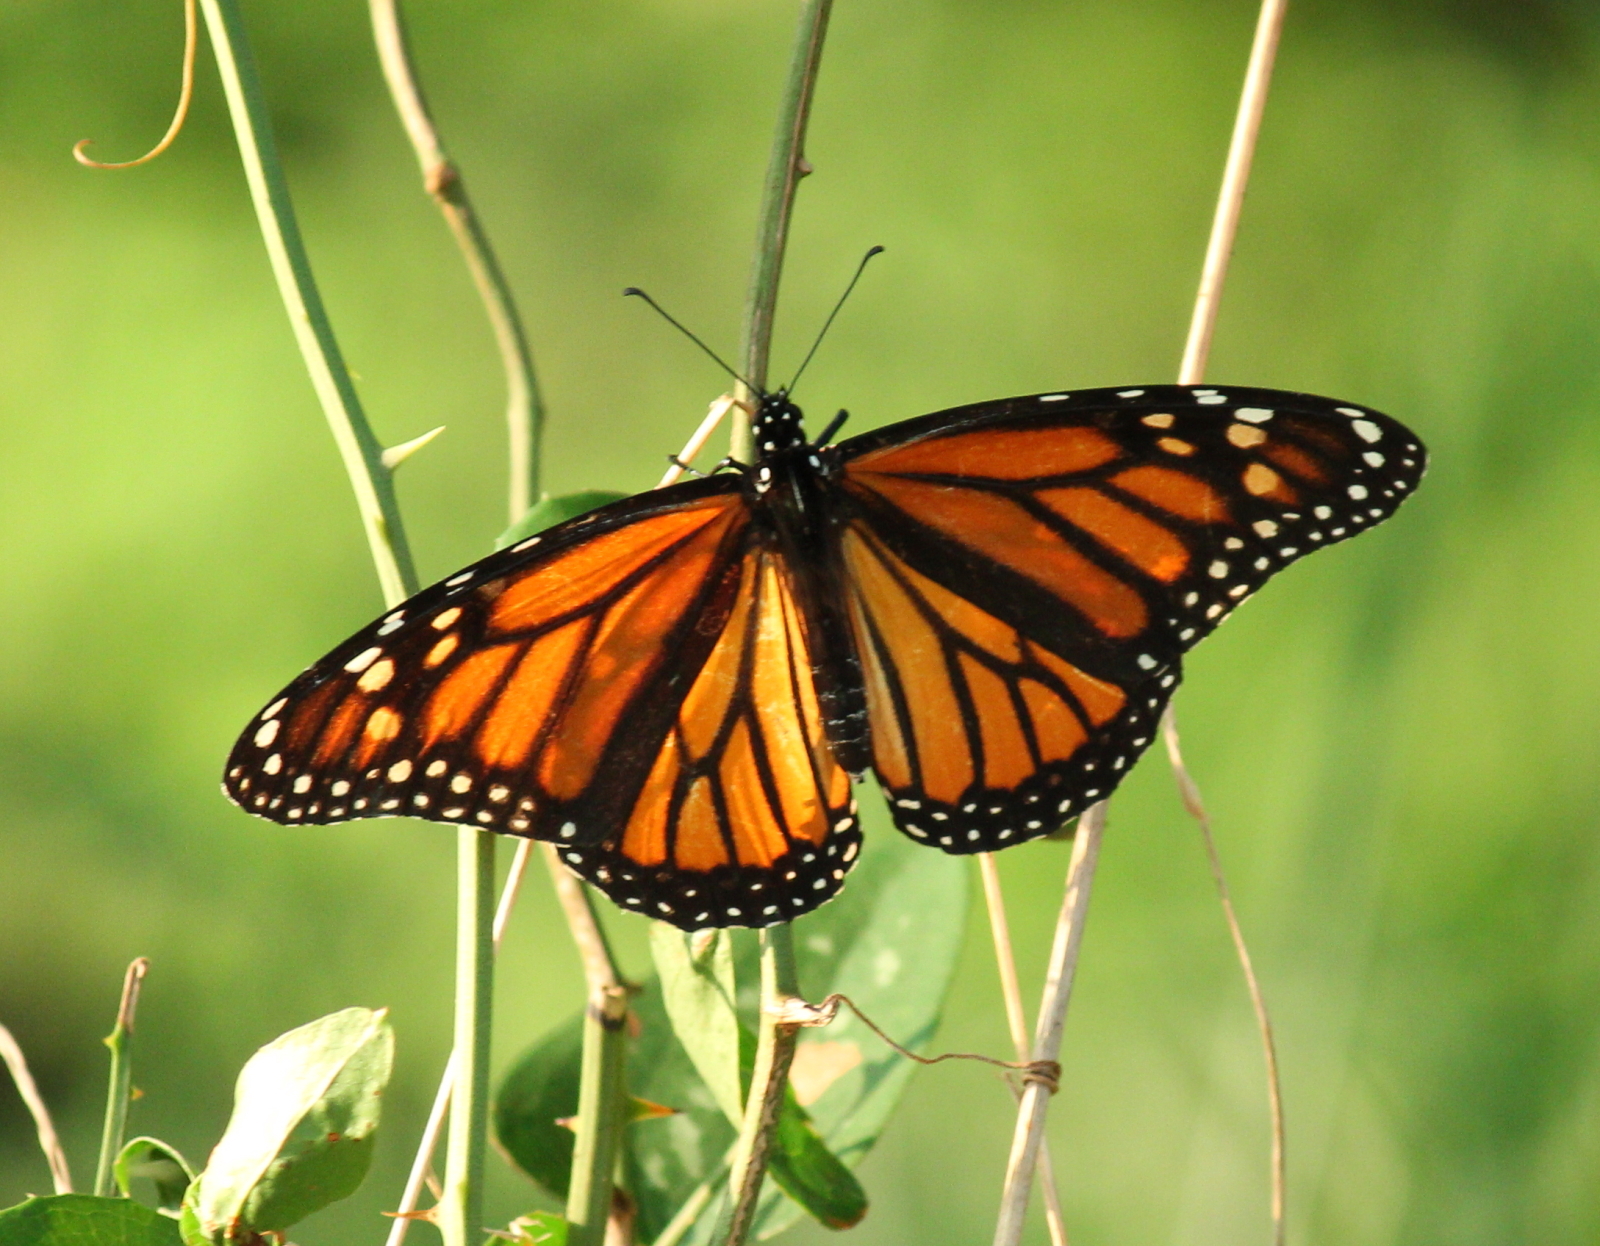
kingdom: Animalia
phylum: Arthropoda
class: Insecta
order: Lepidoptera
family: Nymphalidae
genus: Danaus
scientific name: Danaus plexippus
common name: Monarch
